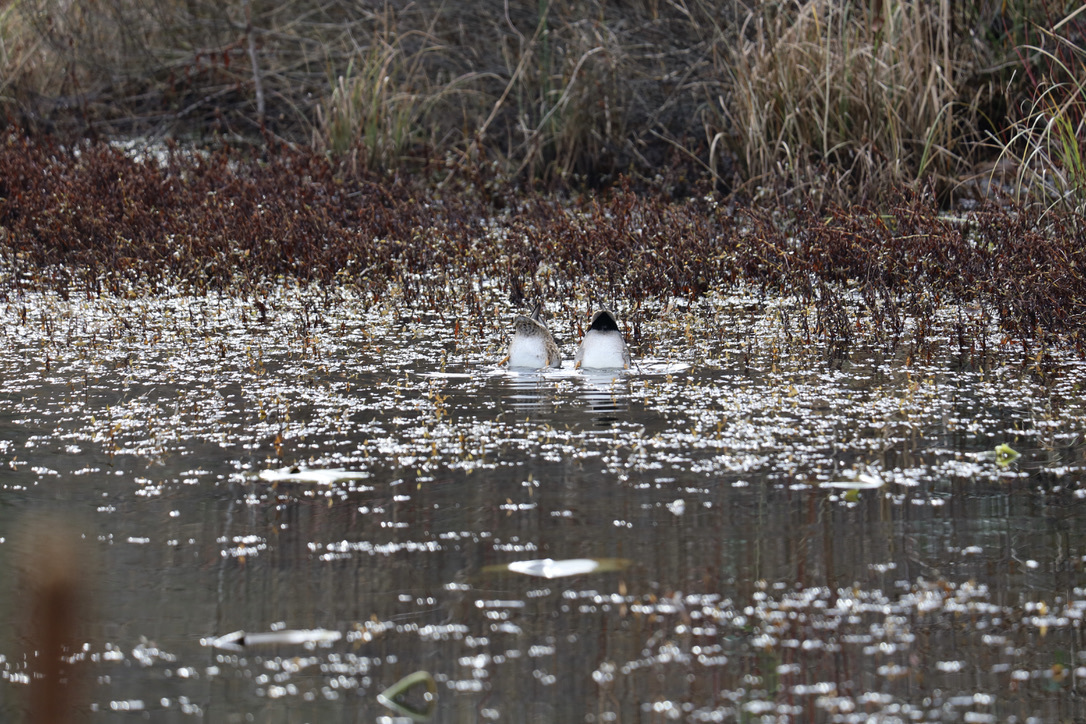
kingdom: Animalia
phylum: Chordata
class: Aves
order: Anseriformes
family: Anatidae
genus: Mareca
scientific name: Mareca strepera
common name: Gadwall
